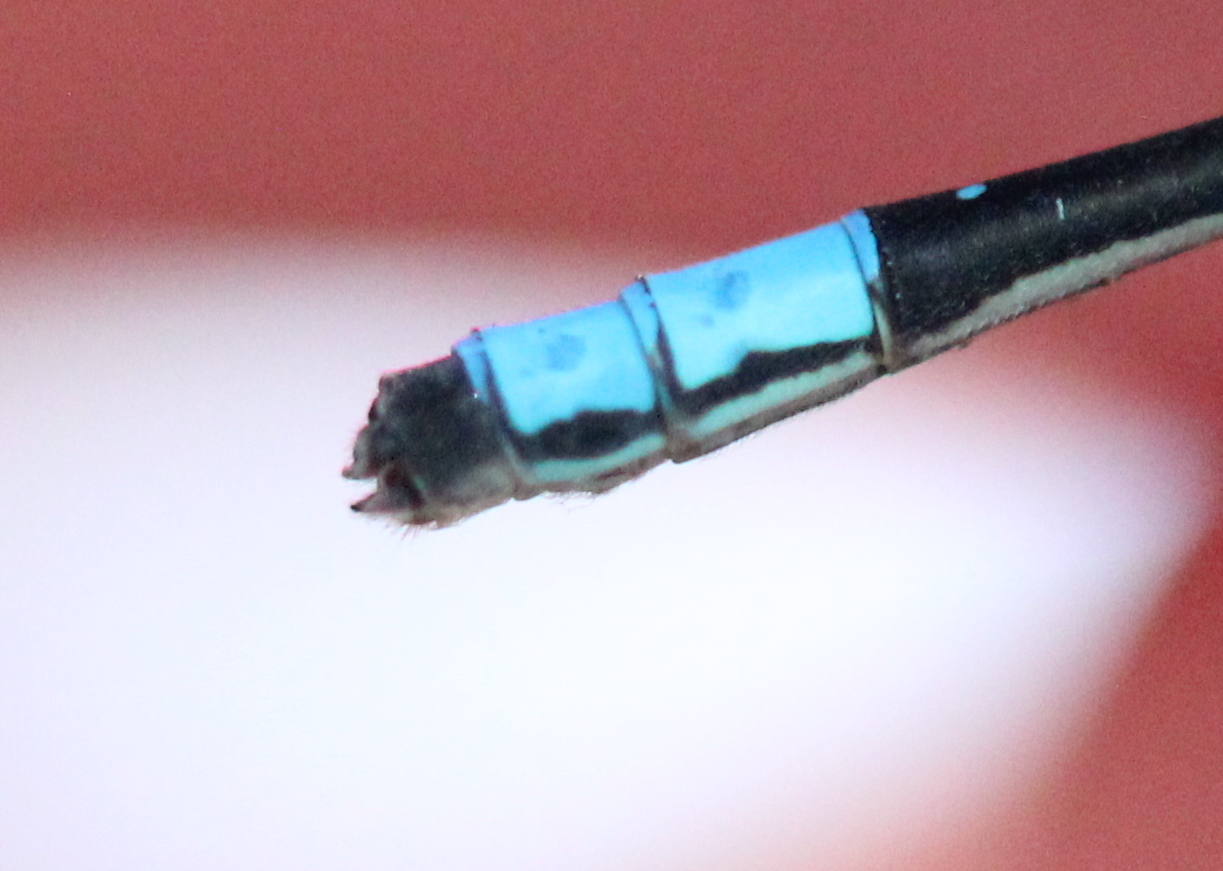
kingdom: Animalia
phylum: Arthropoda
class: Insecta
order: Odonata
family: Coenagrionidae
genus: Enallagma
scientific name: Enallagma geminatum
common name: Skimming bluet
